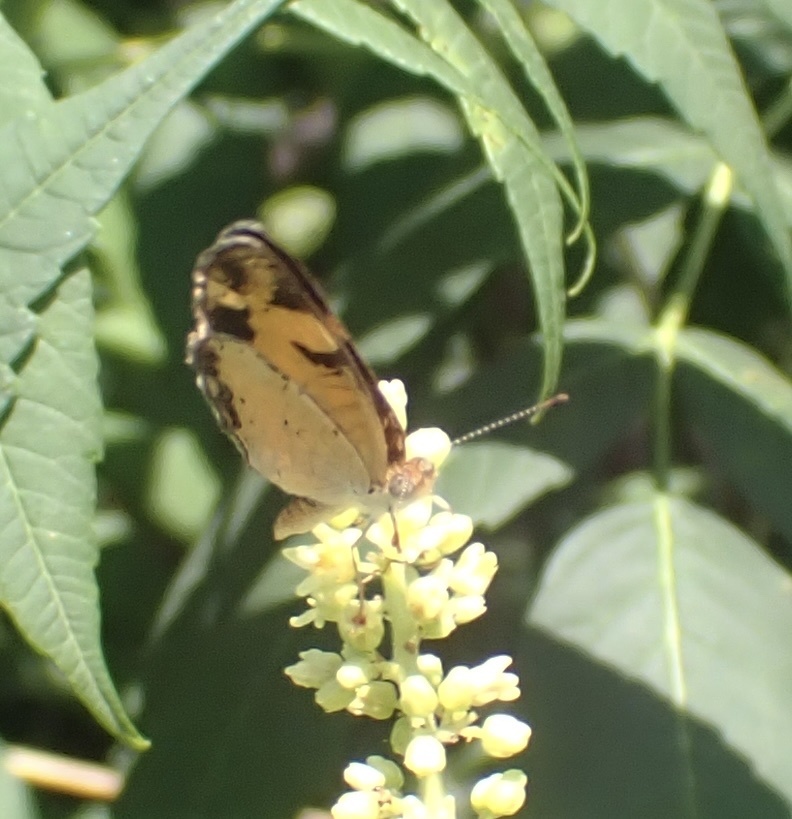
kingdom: Animalia
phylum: Arthropoda
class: Insecta
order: Lepidoptera
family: Nymphalidae
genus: Phyciodes
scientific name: Phyciodes tharos
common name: Pearl crescent
